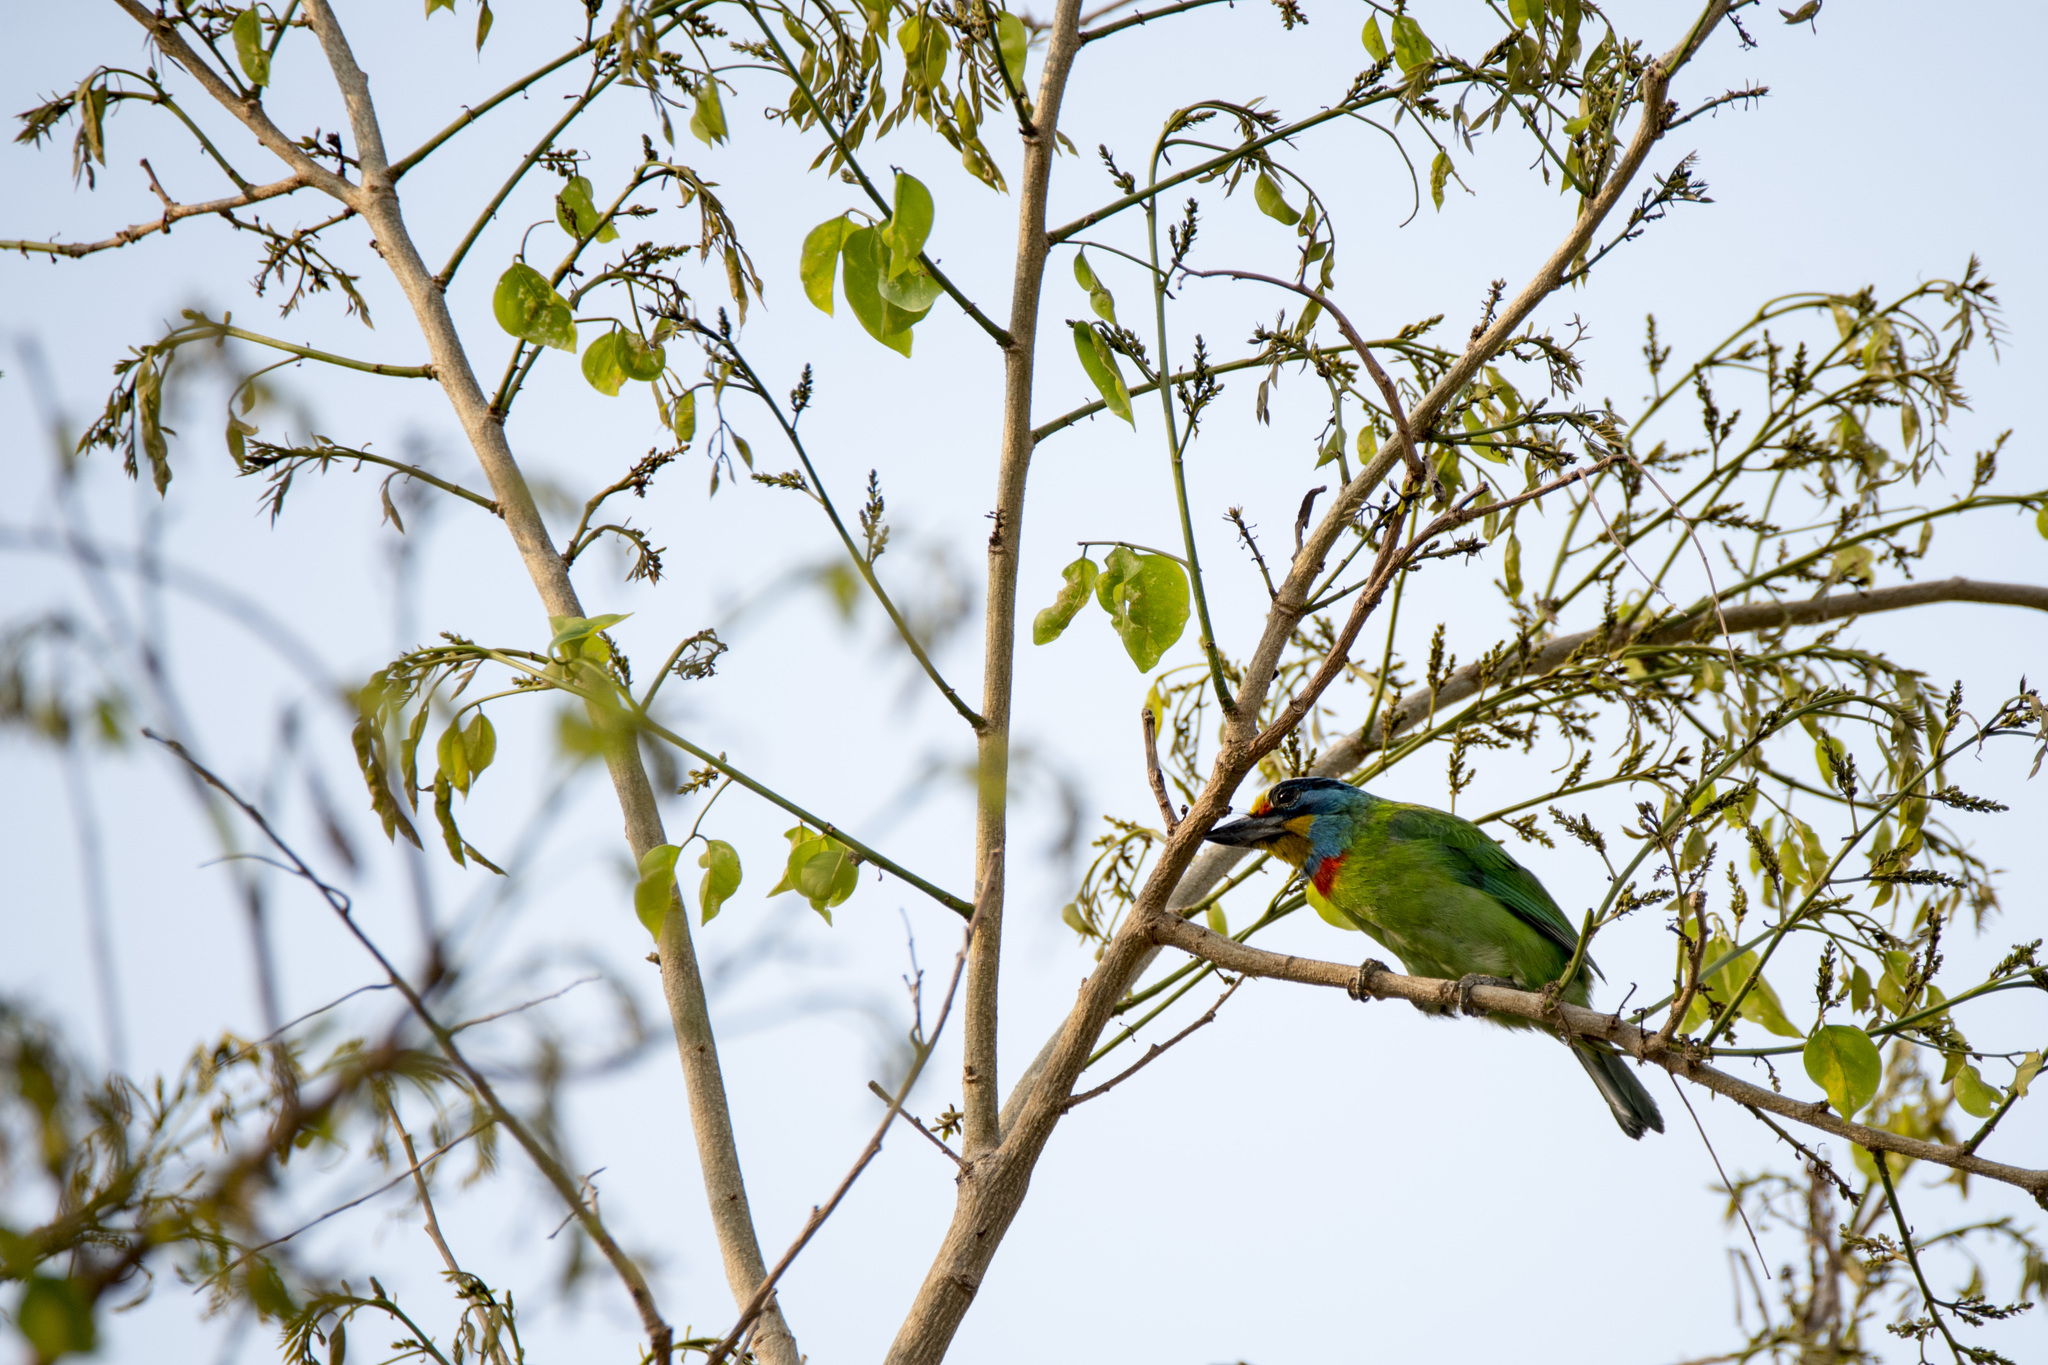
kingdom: Animalia
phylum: Chordata
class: Aves
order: Piciformes
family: Megalaimidae
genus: Psilopogon
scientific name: Psilopogon nuchalis
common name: Taiwan barbet
